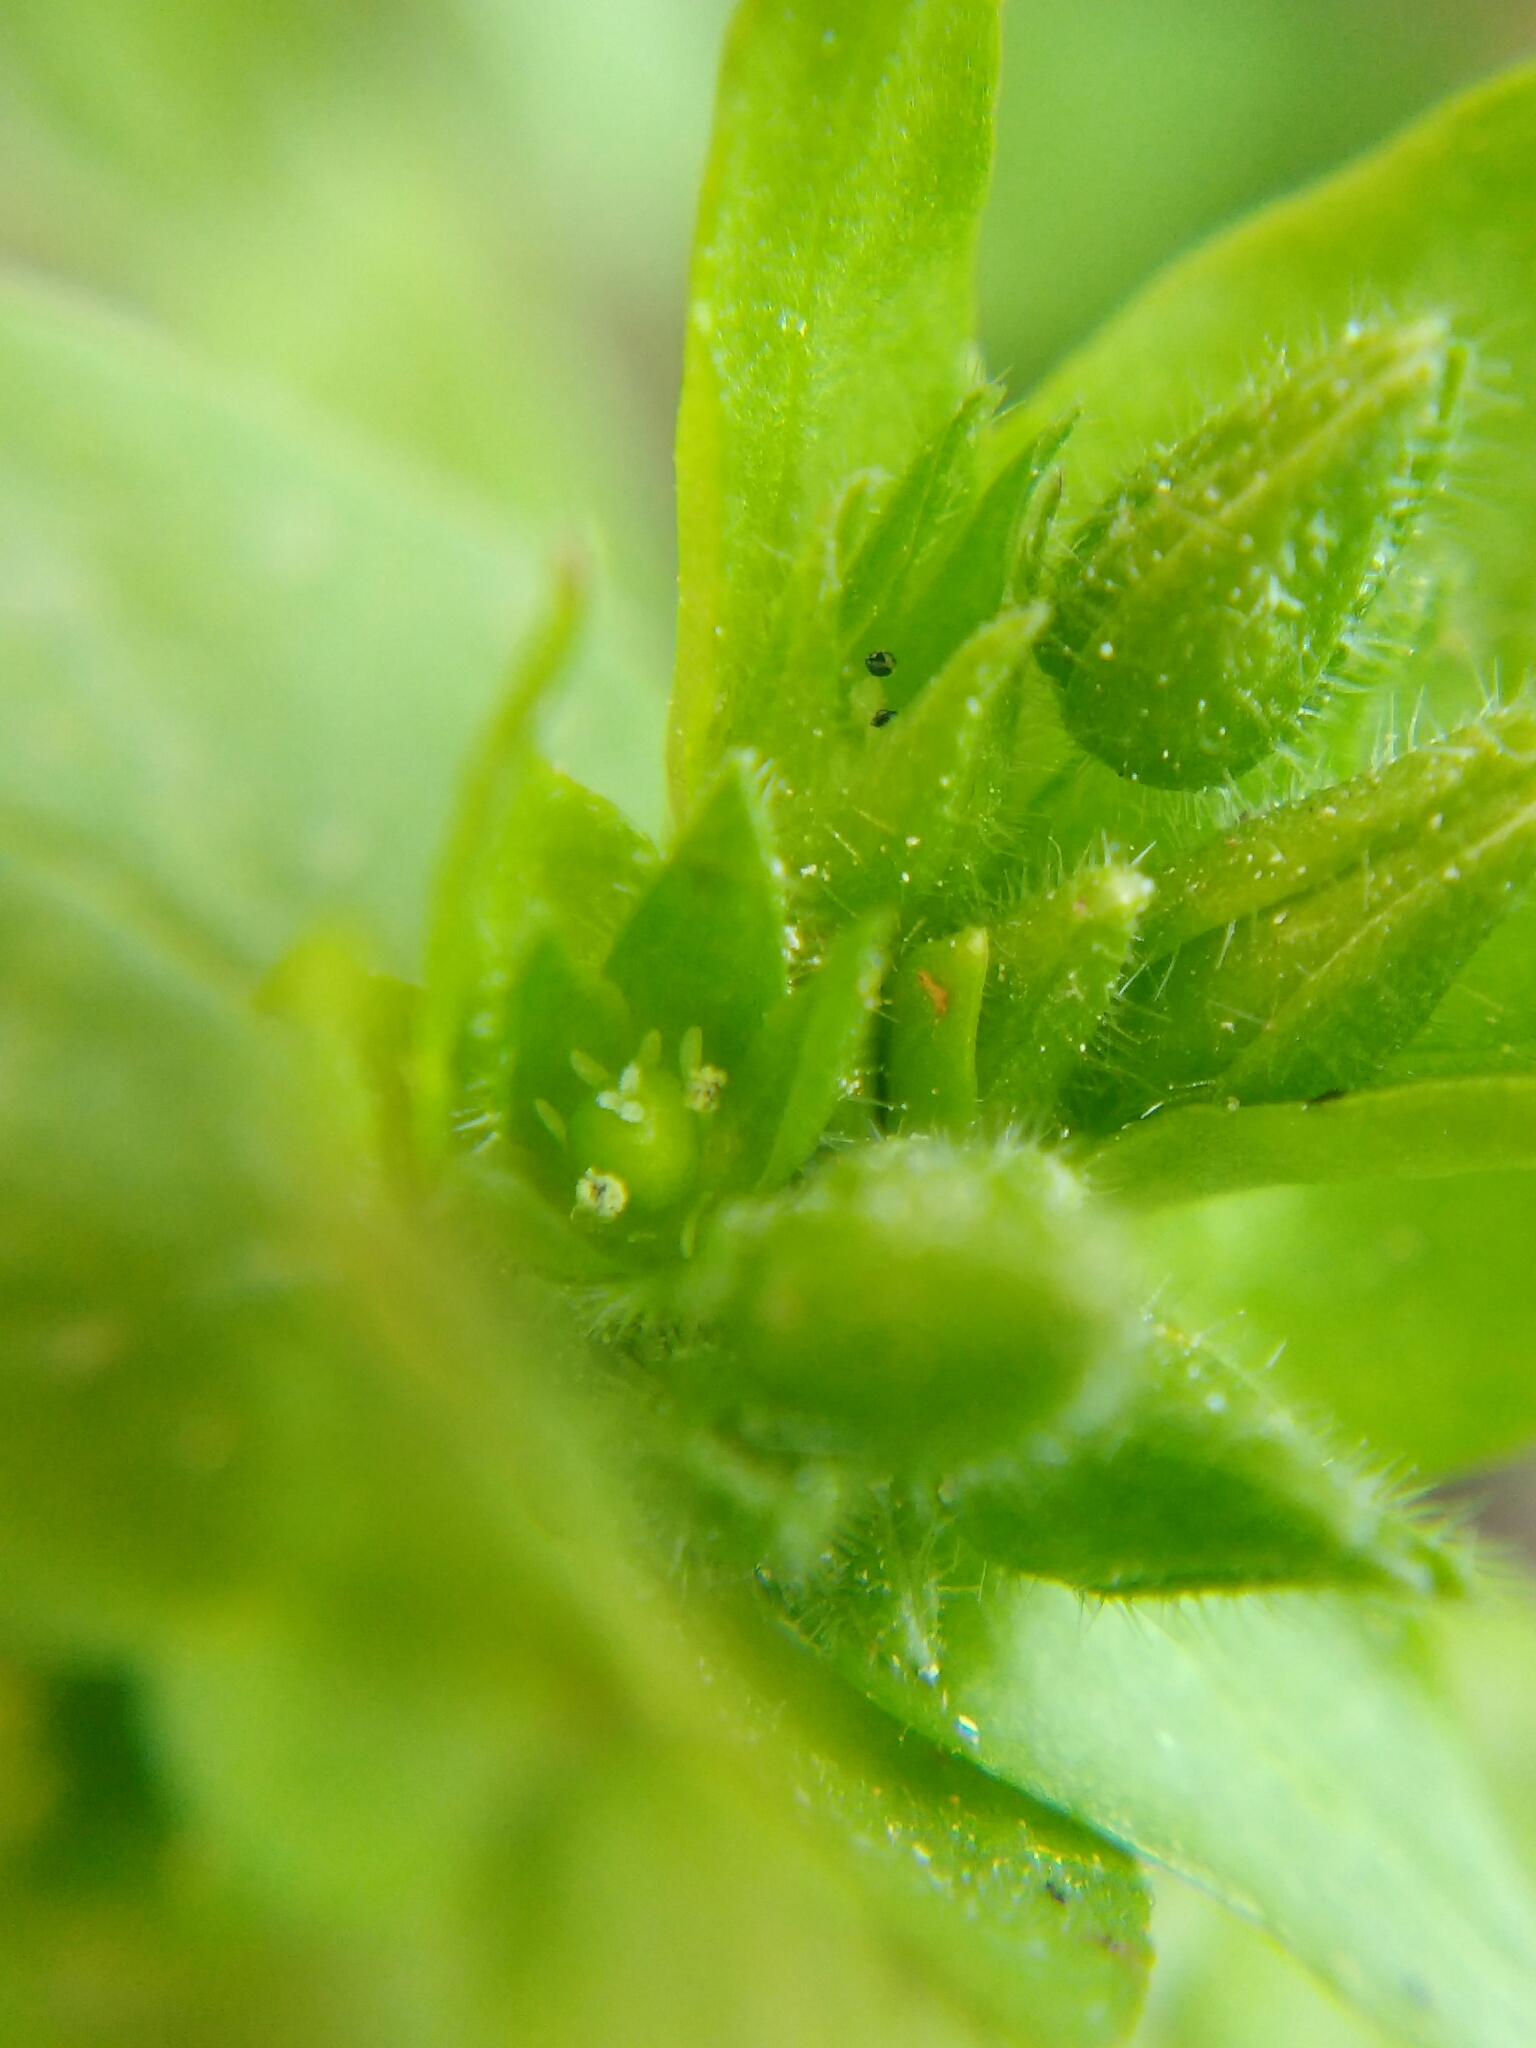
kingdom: Plantae
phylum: Tracheophyta
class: Magnoliopsida
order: Caryophyllales
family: Caryophyllaceae
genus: Stellaria
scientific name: Stellaria apetala
